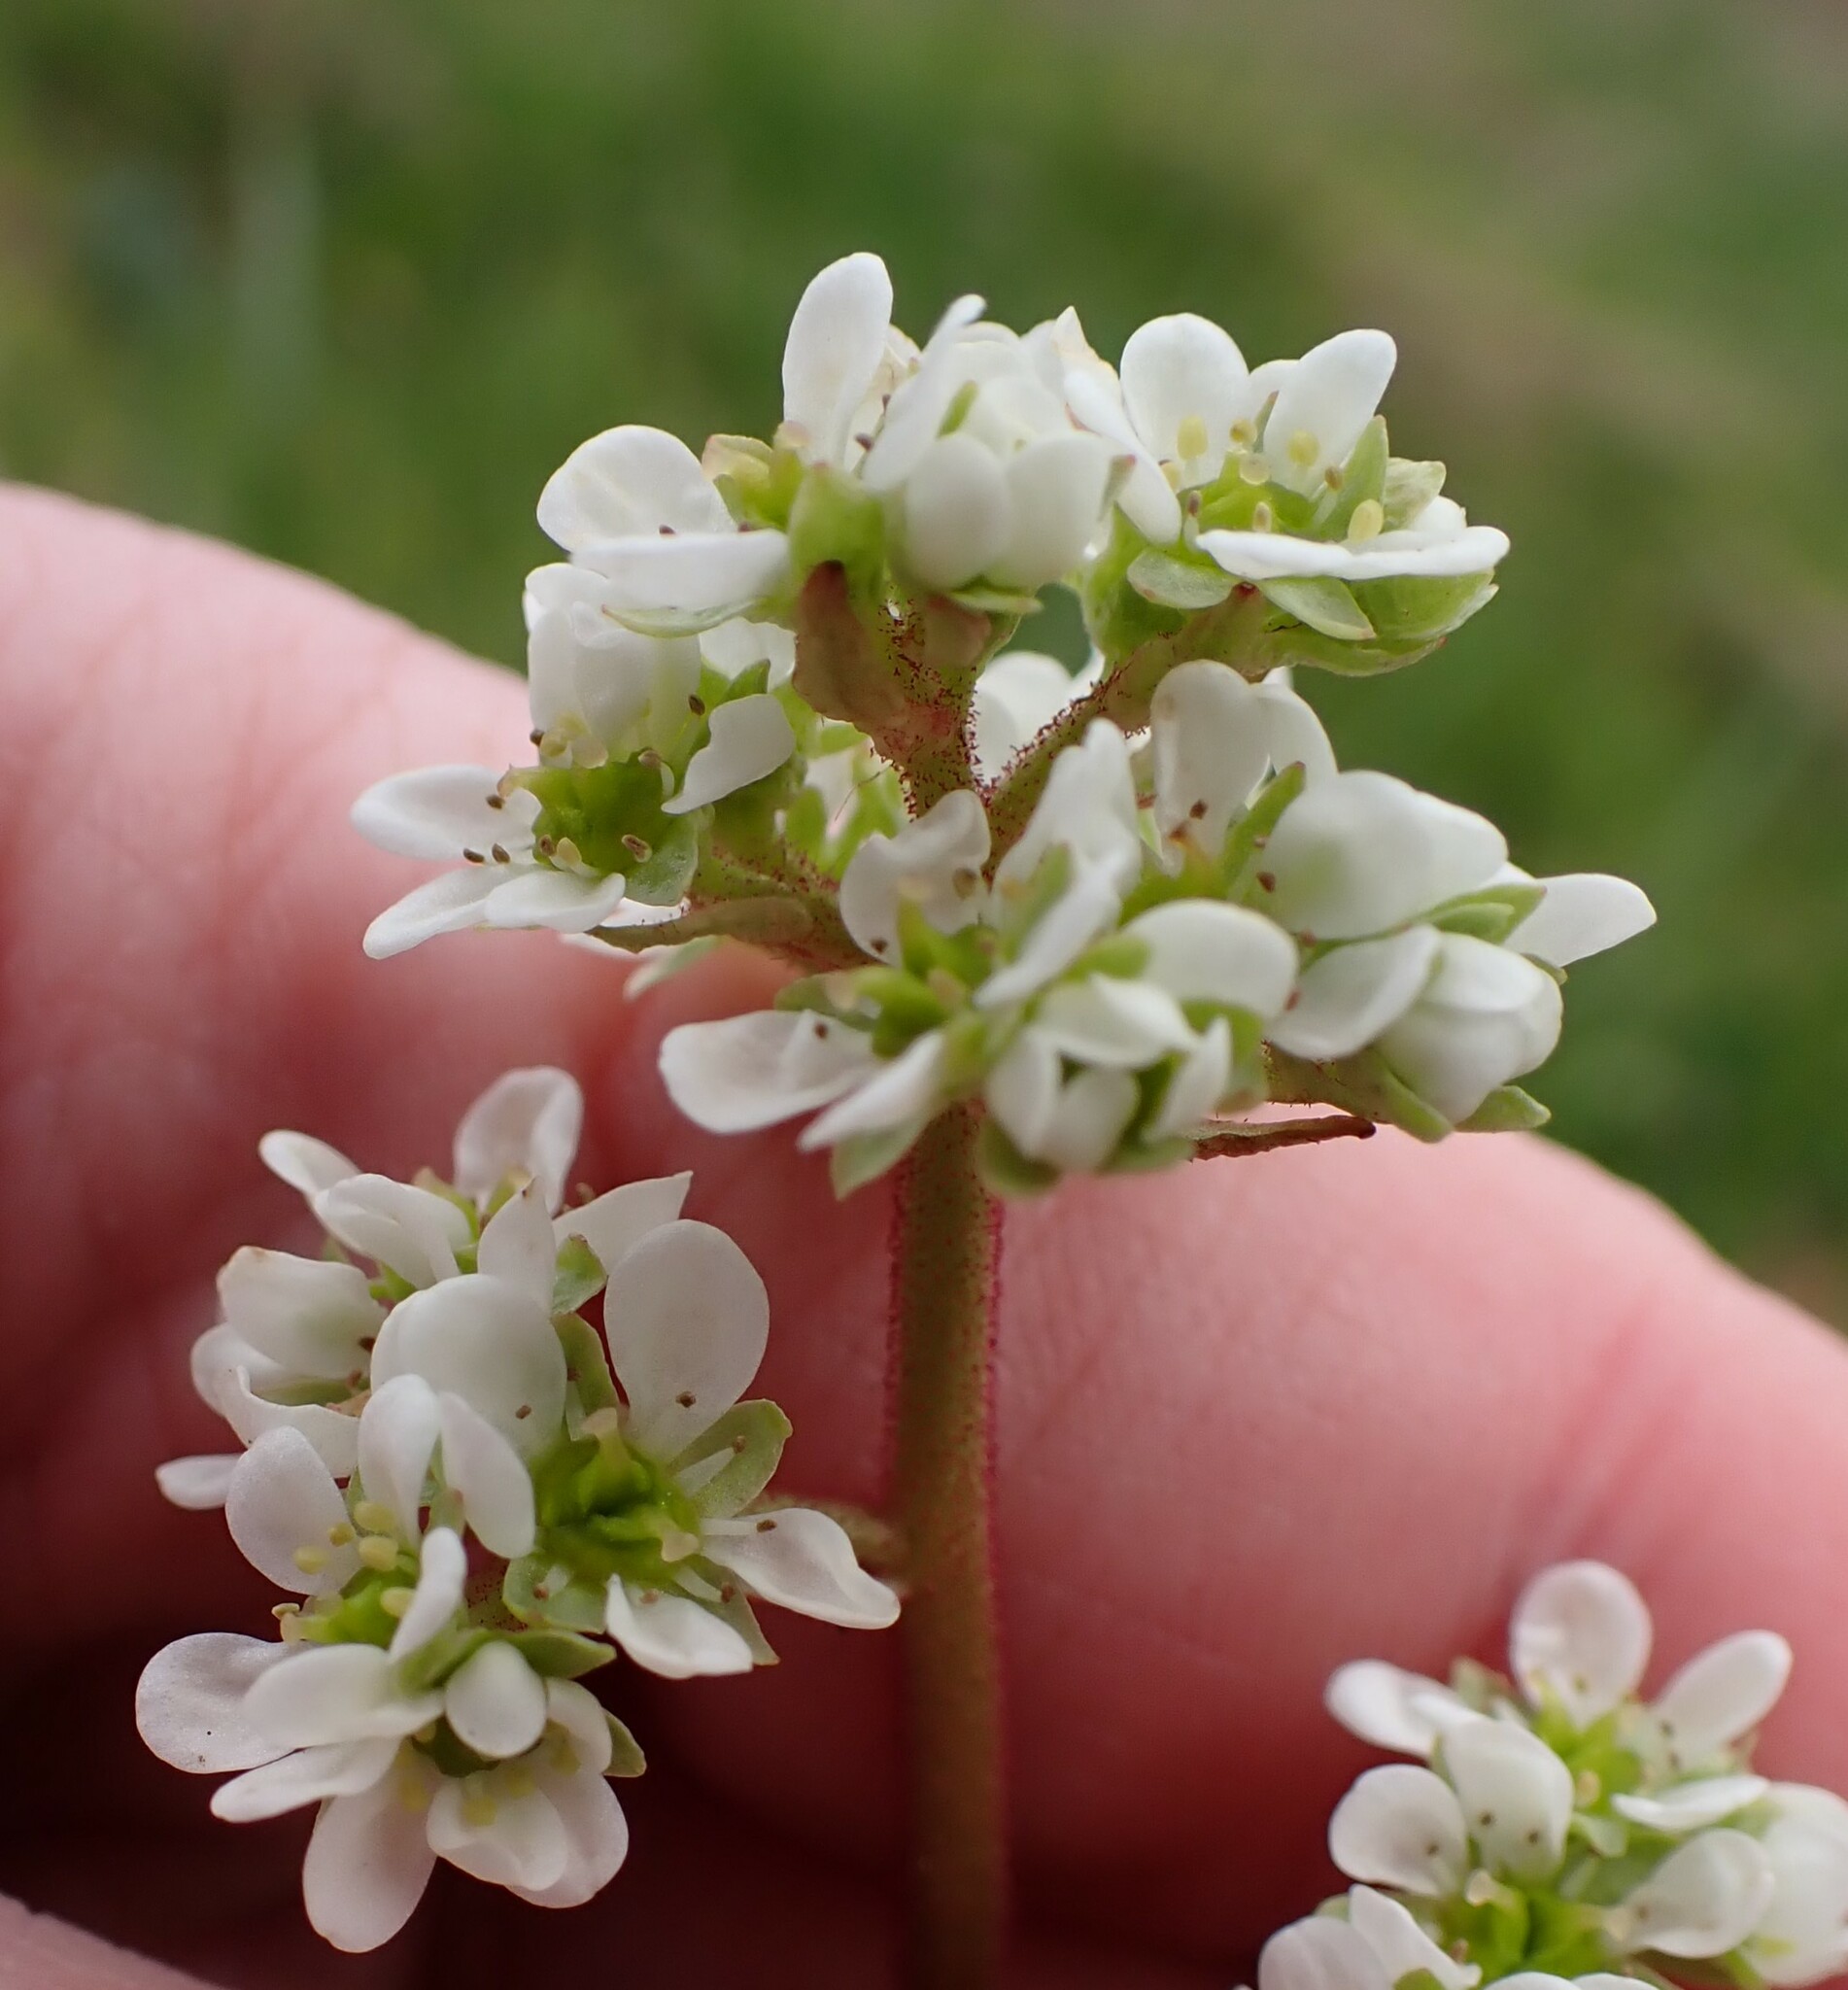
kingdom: Plantae
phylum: Tracheophyta
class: Magnoliopsida
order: Saxifragales
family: Saxifragaceae
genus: Micranthes
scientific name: Micranthes integrifolia
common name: Wholeleaf saxifrage
